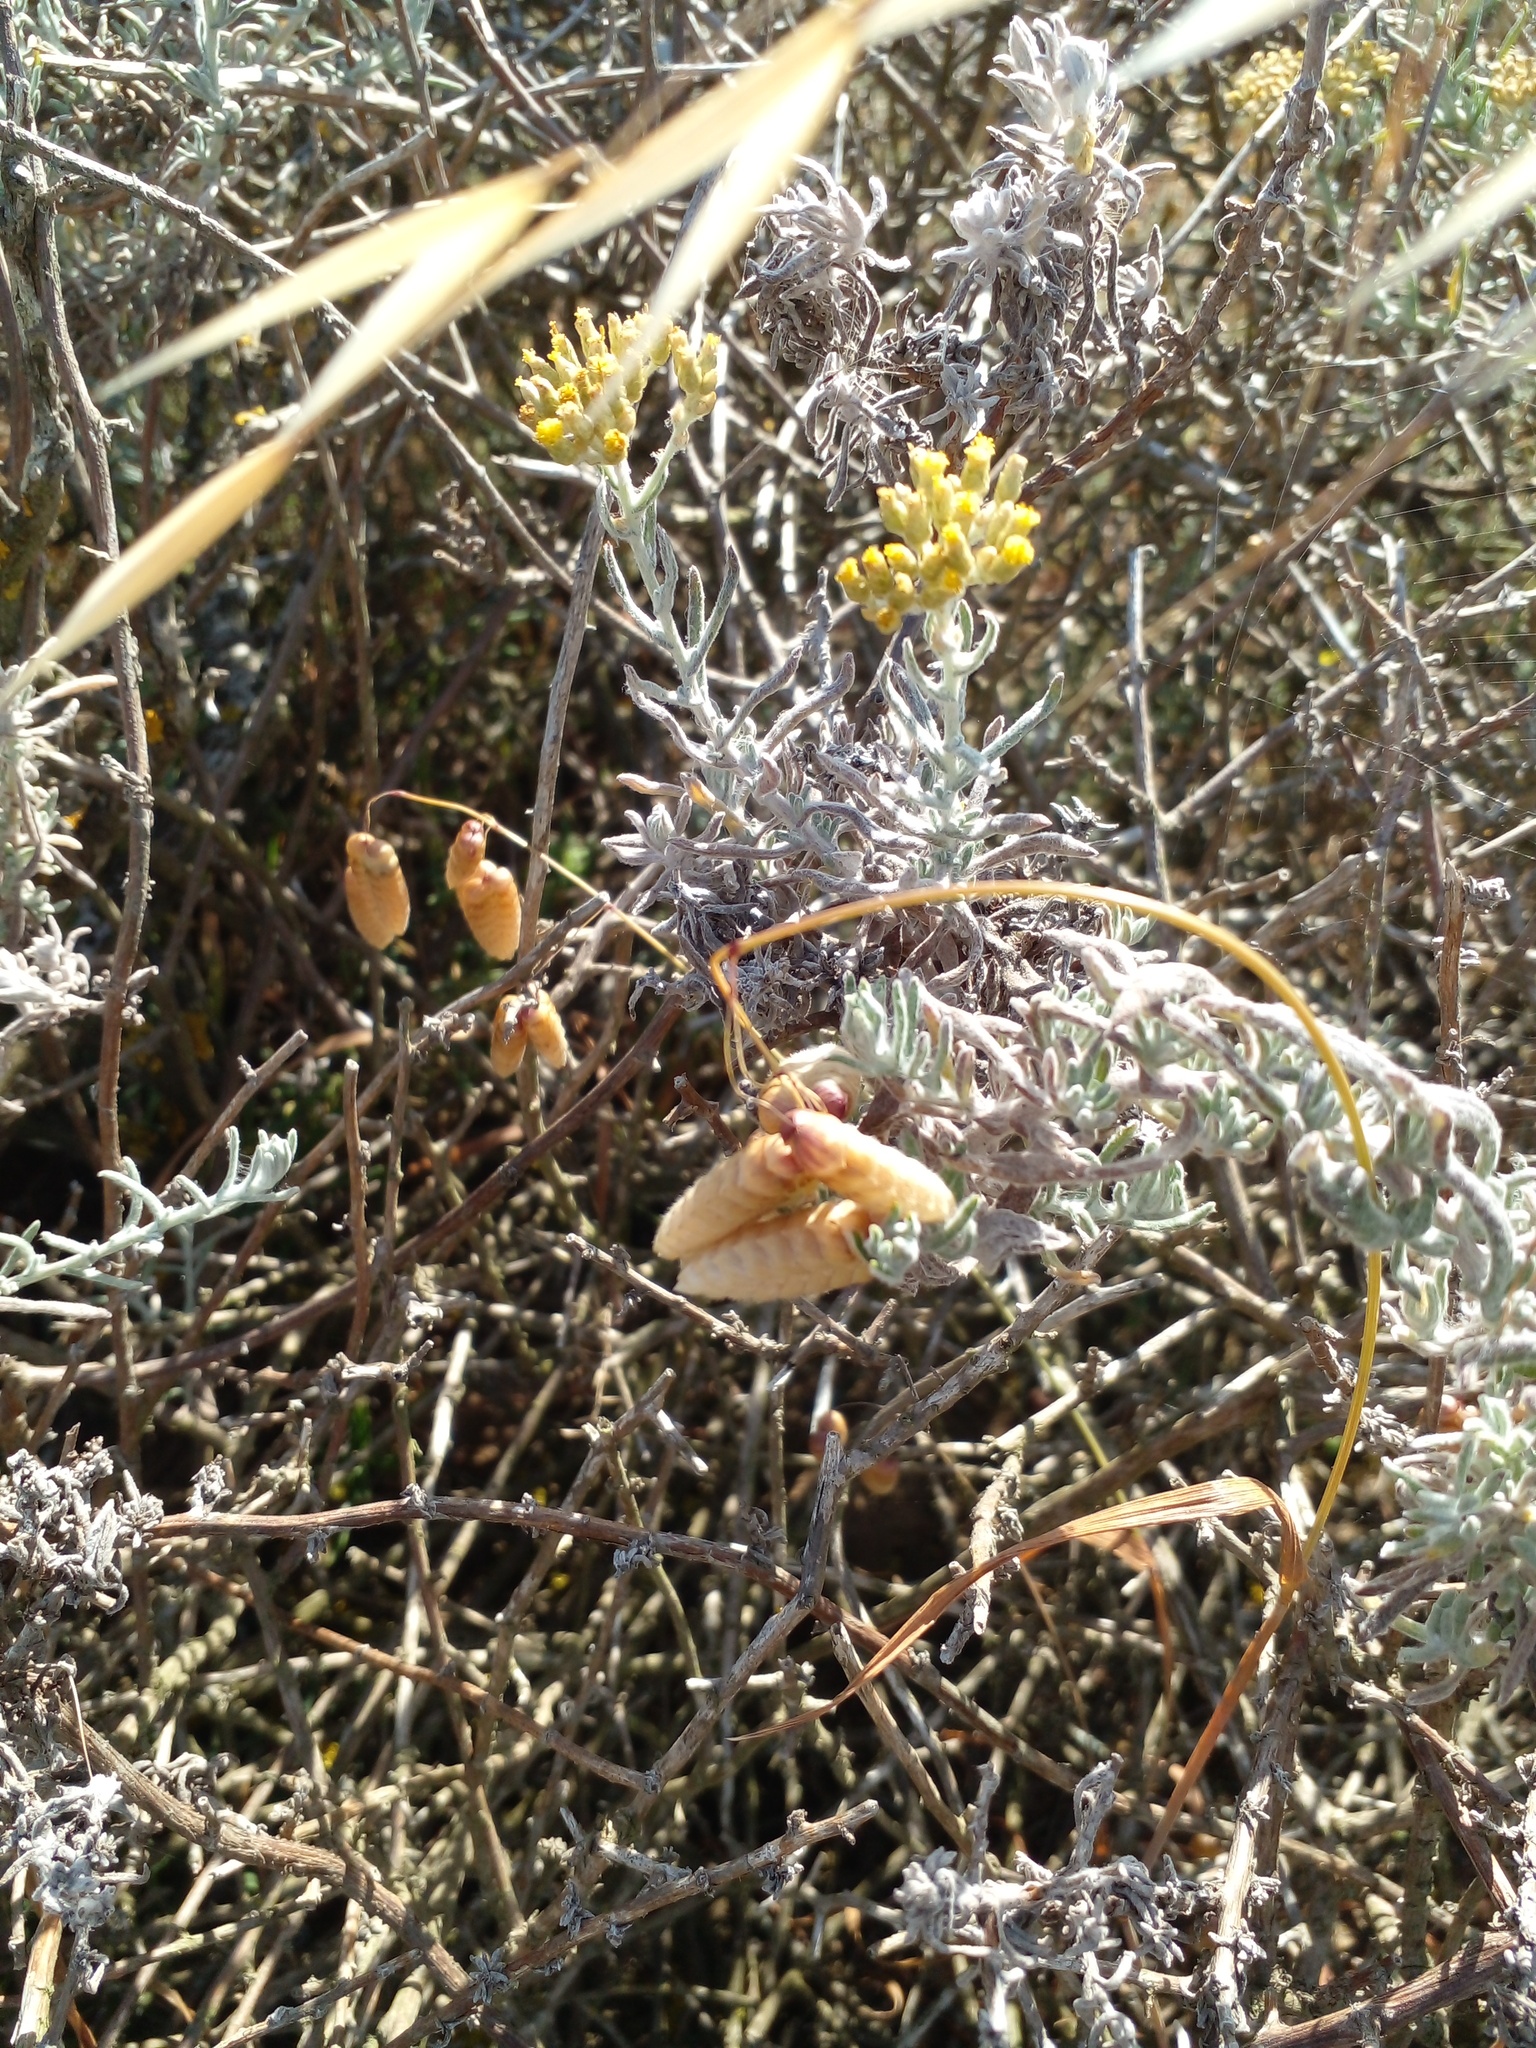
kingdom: Plantae
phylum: Tracheophyta
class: Liliopsida
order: Poales
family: Poaceae
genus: Briza
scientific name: Briza maxima
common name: Big quakinggrass
